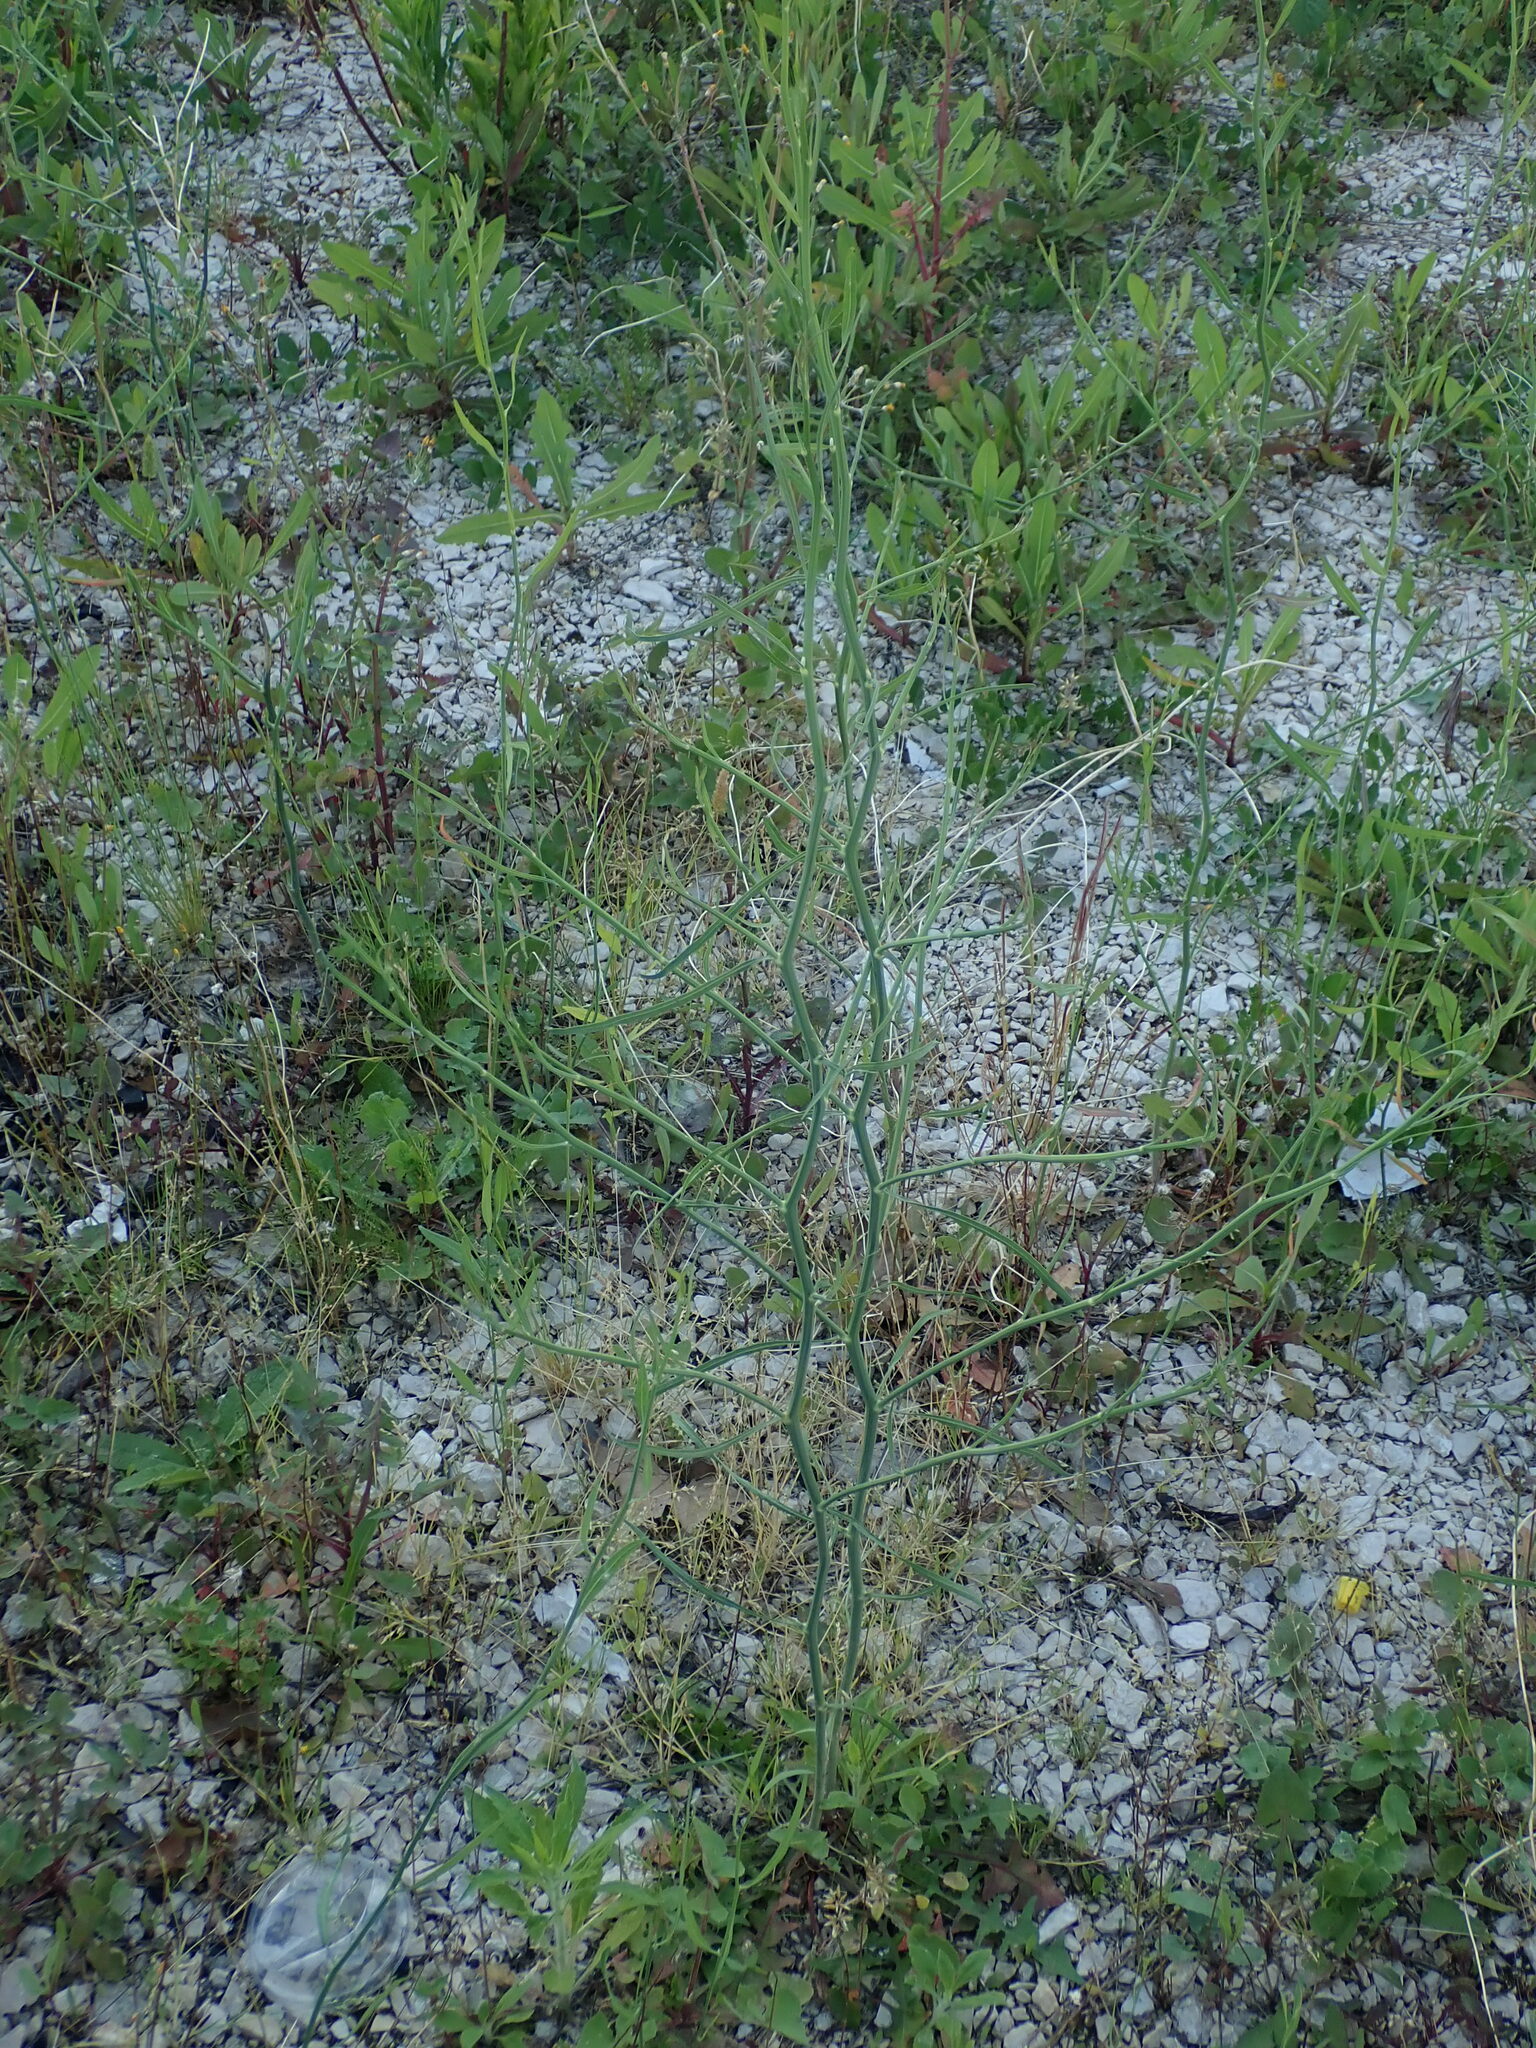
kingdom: Plantae
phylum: Tracheophyta
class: Magnoliopsida
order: Asterales
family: Asteraceae
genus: Chondrilla
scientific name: Chondrilla juncea
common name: Skeleton weed
